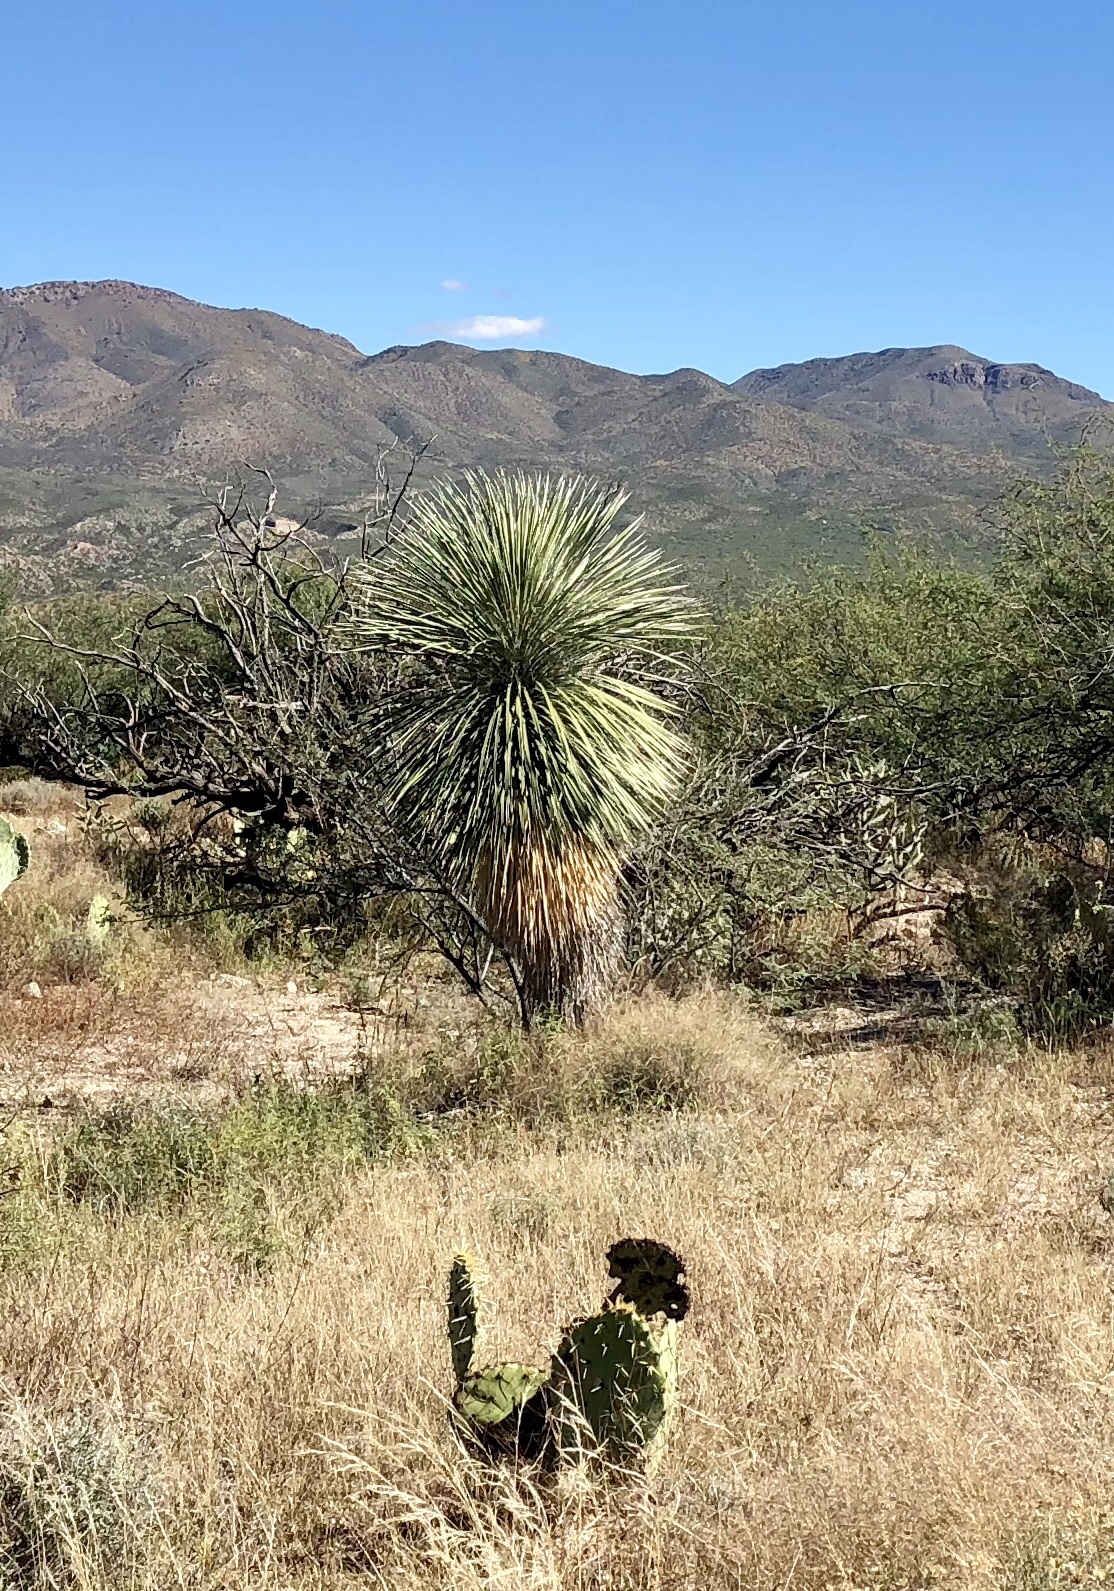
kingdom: Plantae
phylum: Tracheophyta
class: Liliopsida
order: Asparagales
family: Asparagaceae
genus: Yucca
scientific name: Yucca elata
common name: Palmella
